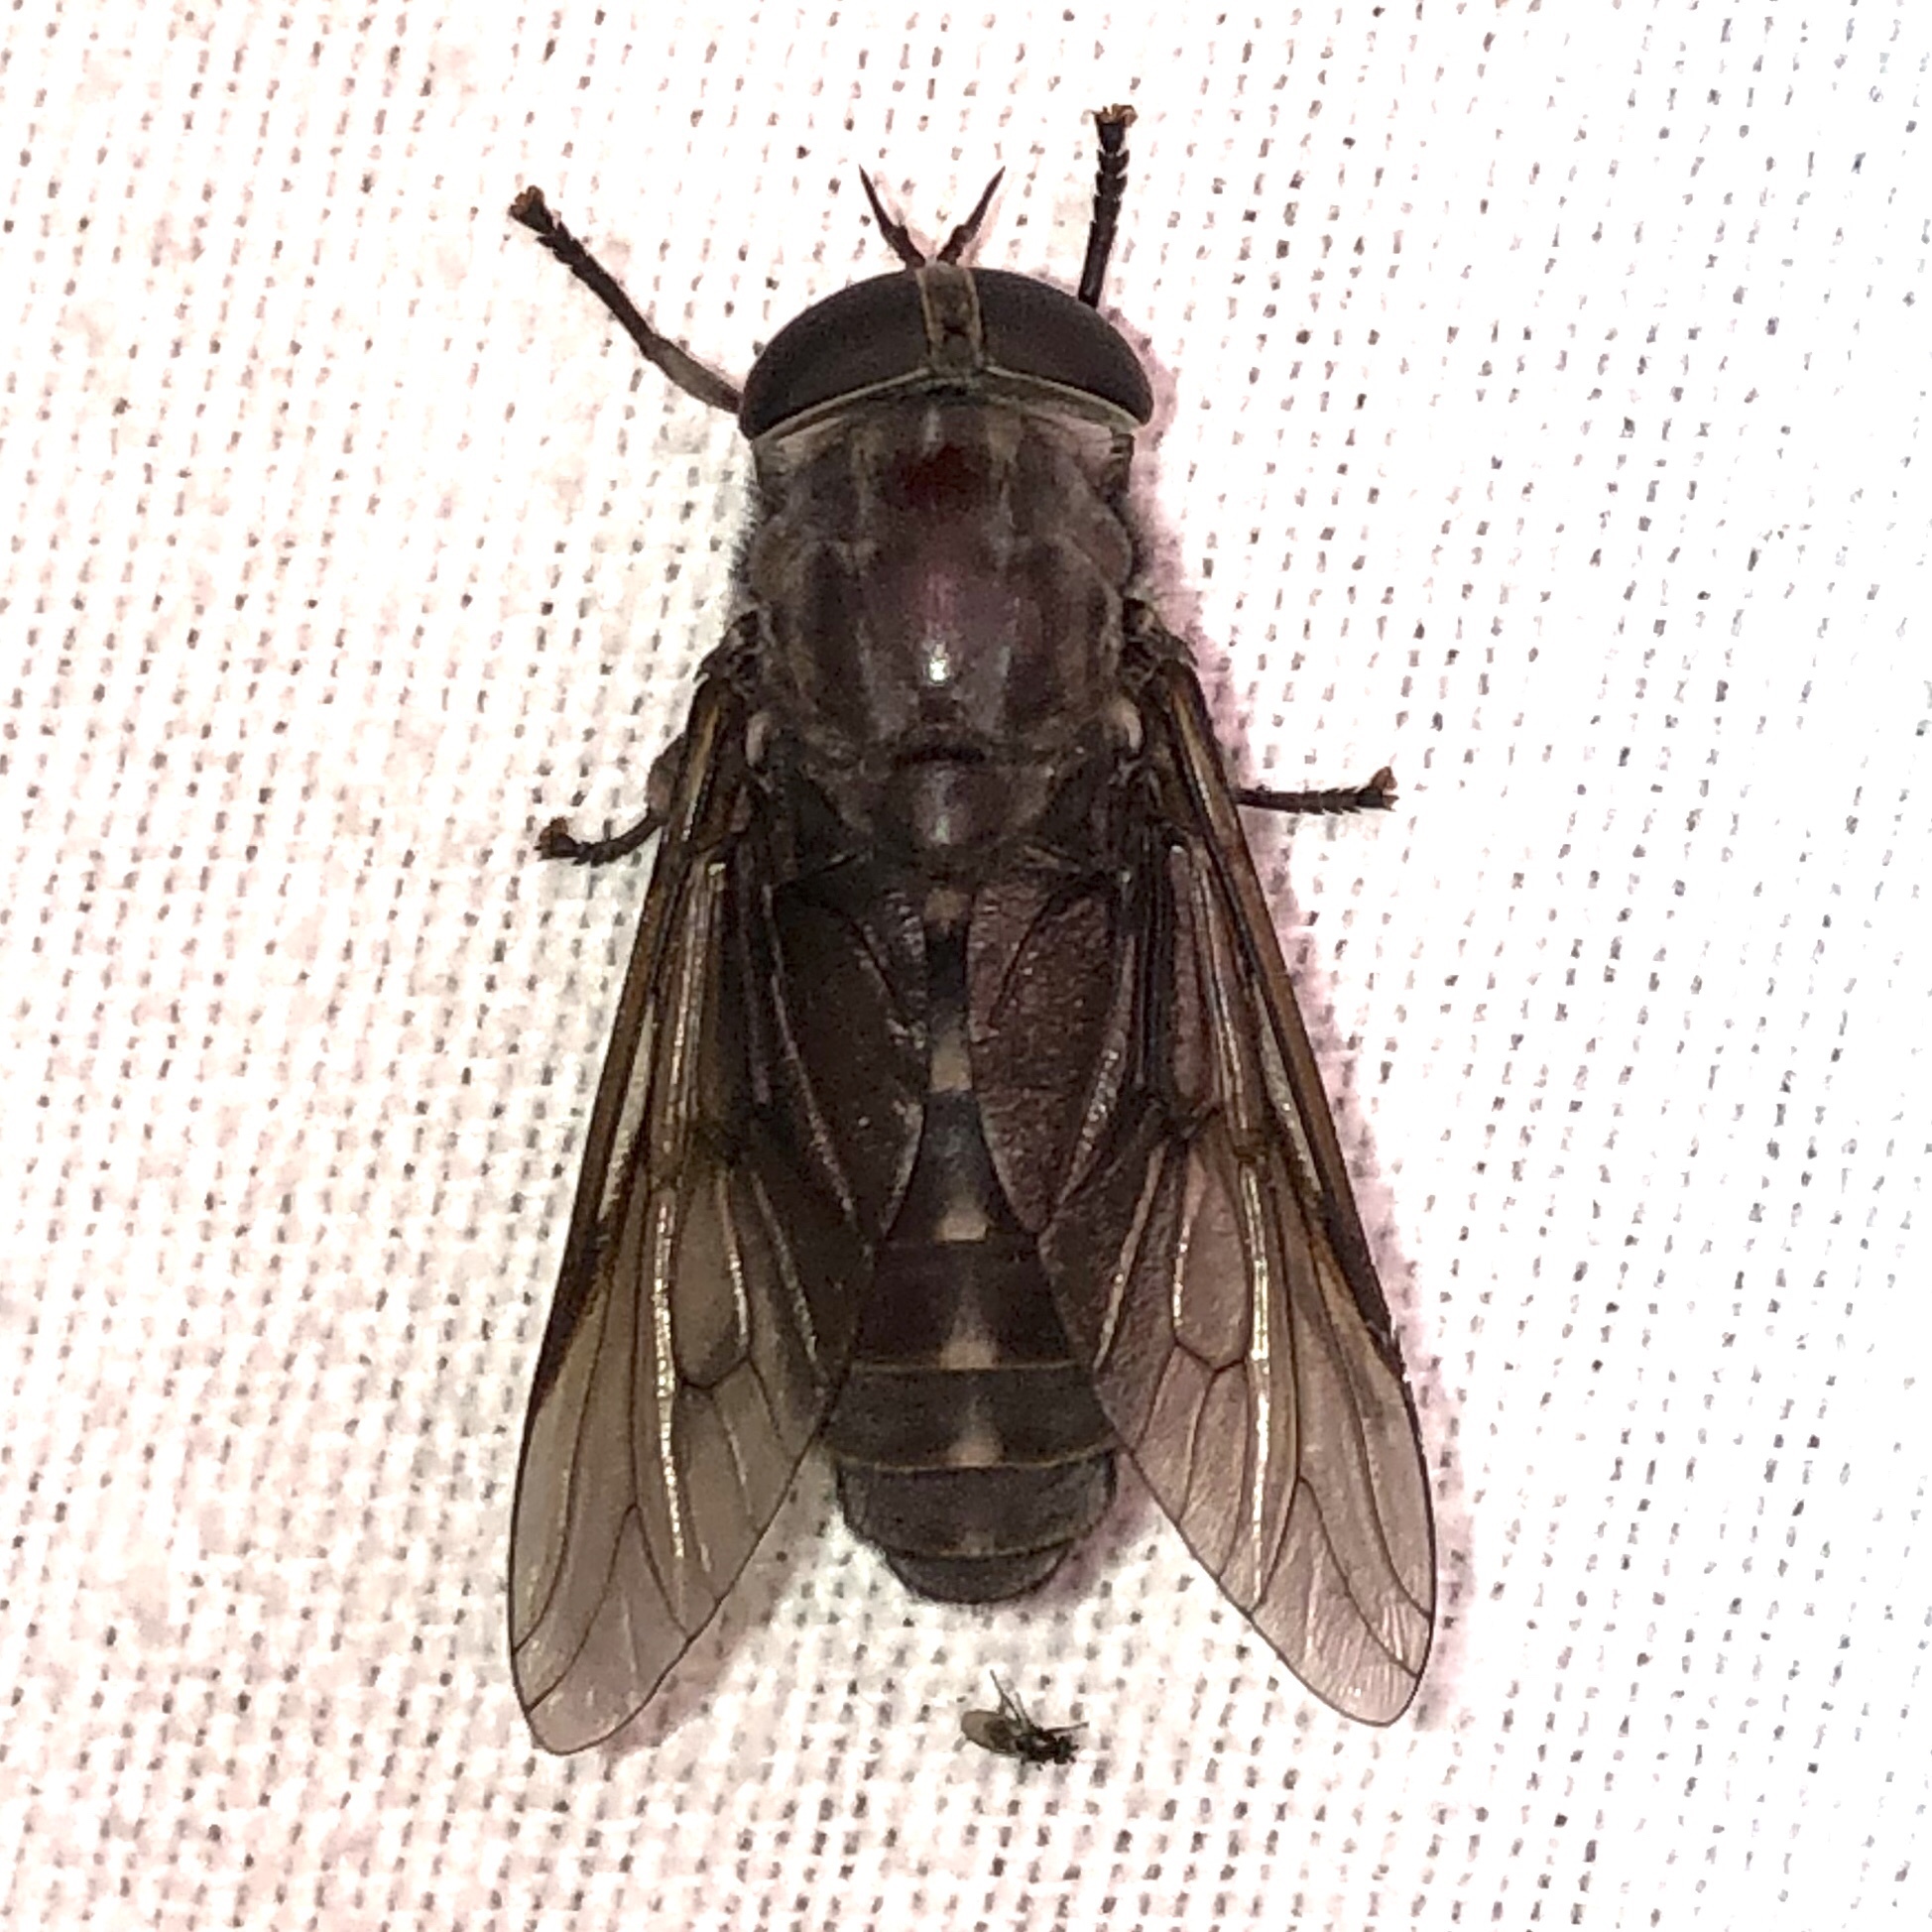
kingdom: Animalia
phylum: Arthropoda
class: Insecta
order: Diptera
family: Tabanidae
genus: Tabanus
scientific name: Tabanus catenatus
